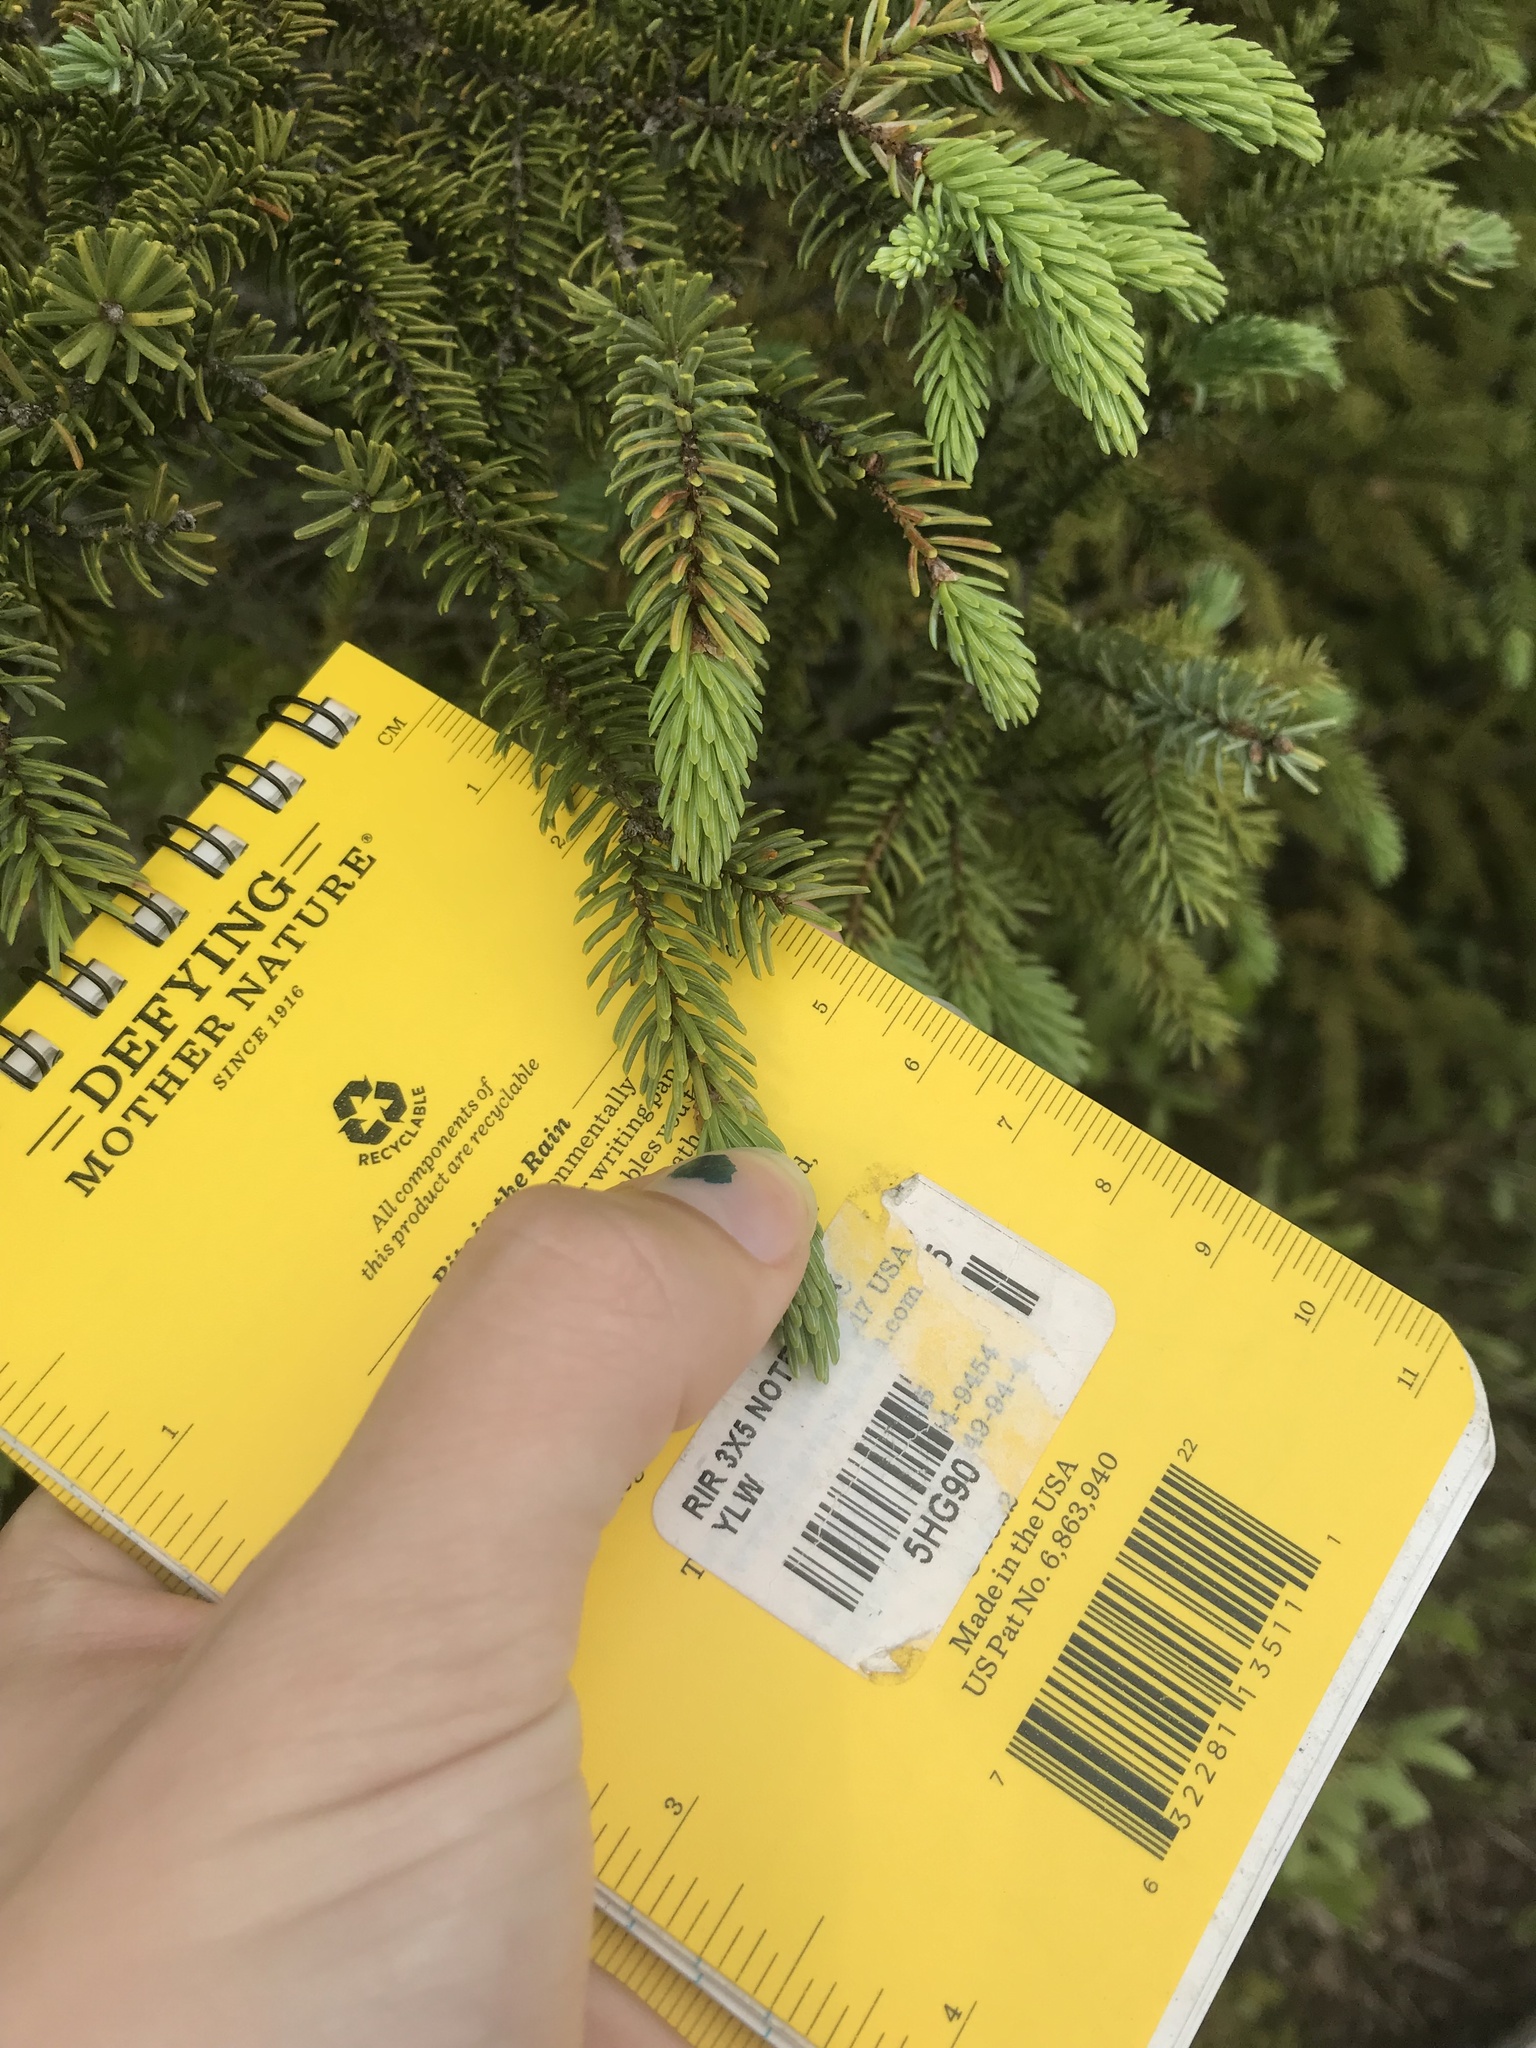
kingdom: Plantae
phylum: Tracheophyta
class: Pinopsida
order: Pinales
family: Pinaceae
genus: Picea
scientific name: Picea mariana
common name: Black spruce
